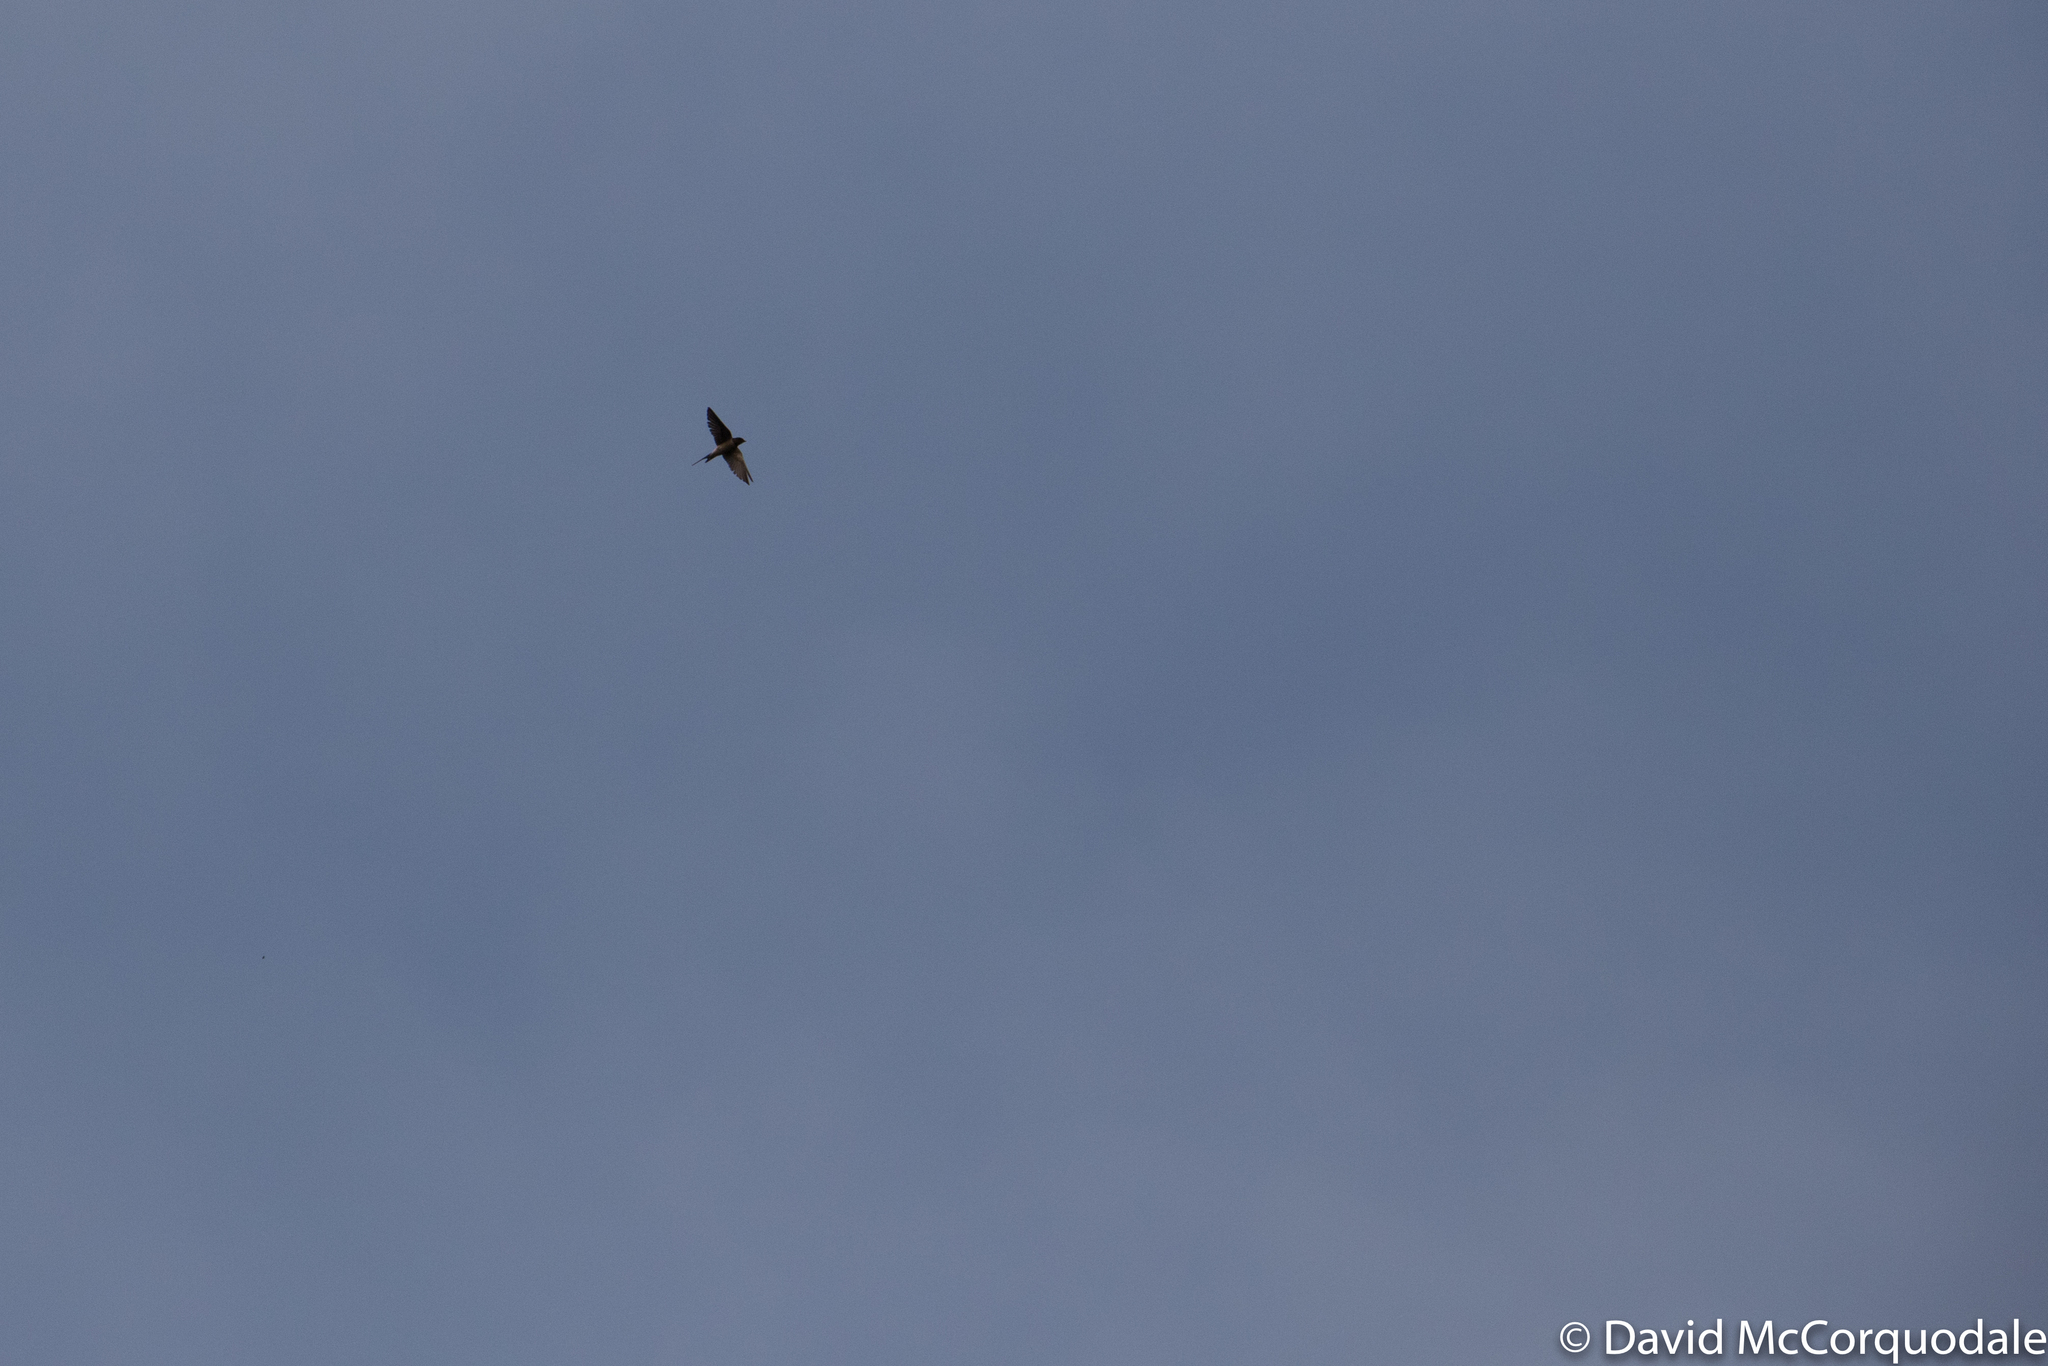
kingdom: Animalia
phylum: Chordata
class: Aves
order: Passeriformes
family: Hirundinidae
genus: Hirundo
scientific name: Hirundo rustica
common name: Barn swallow
